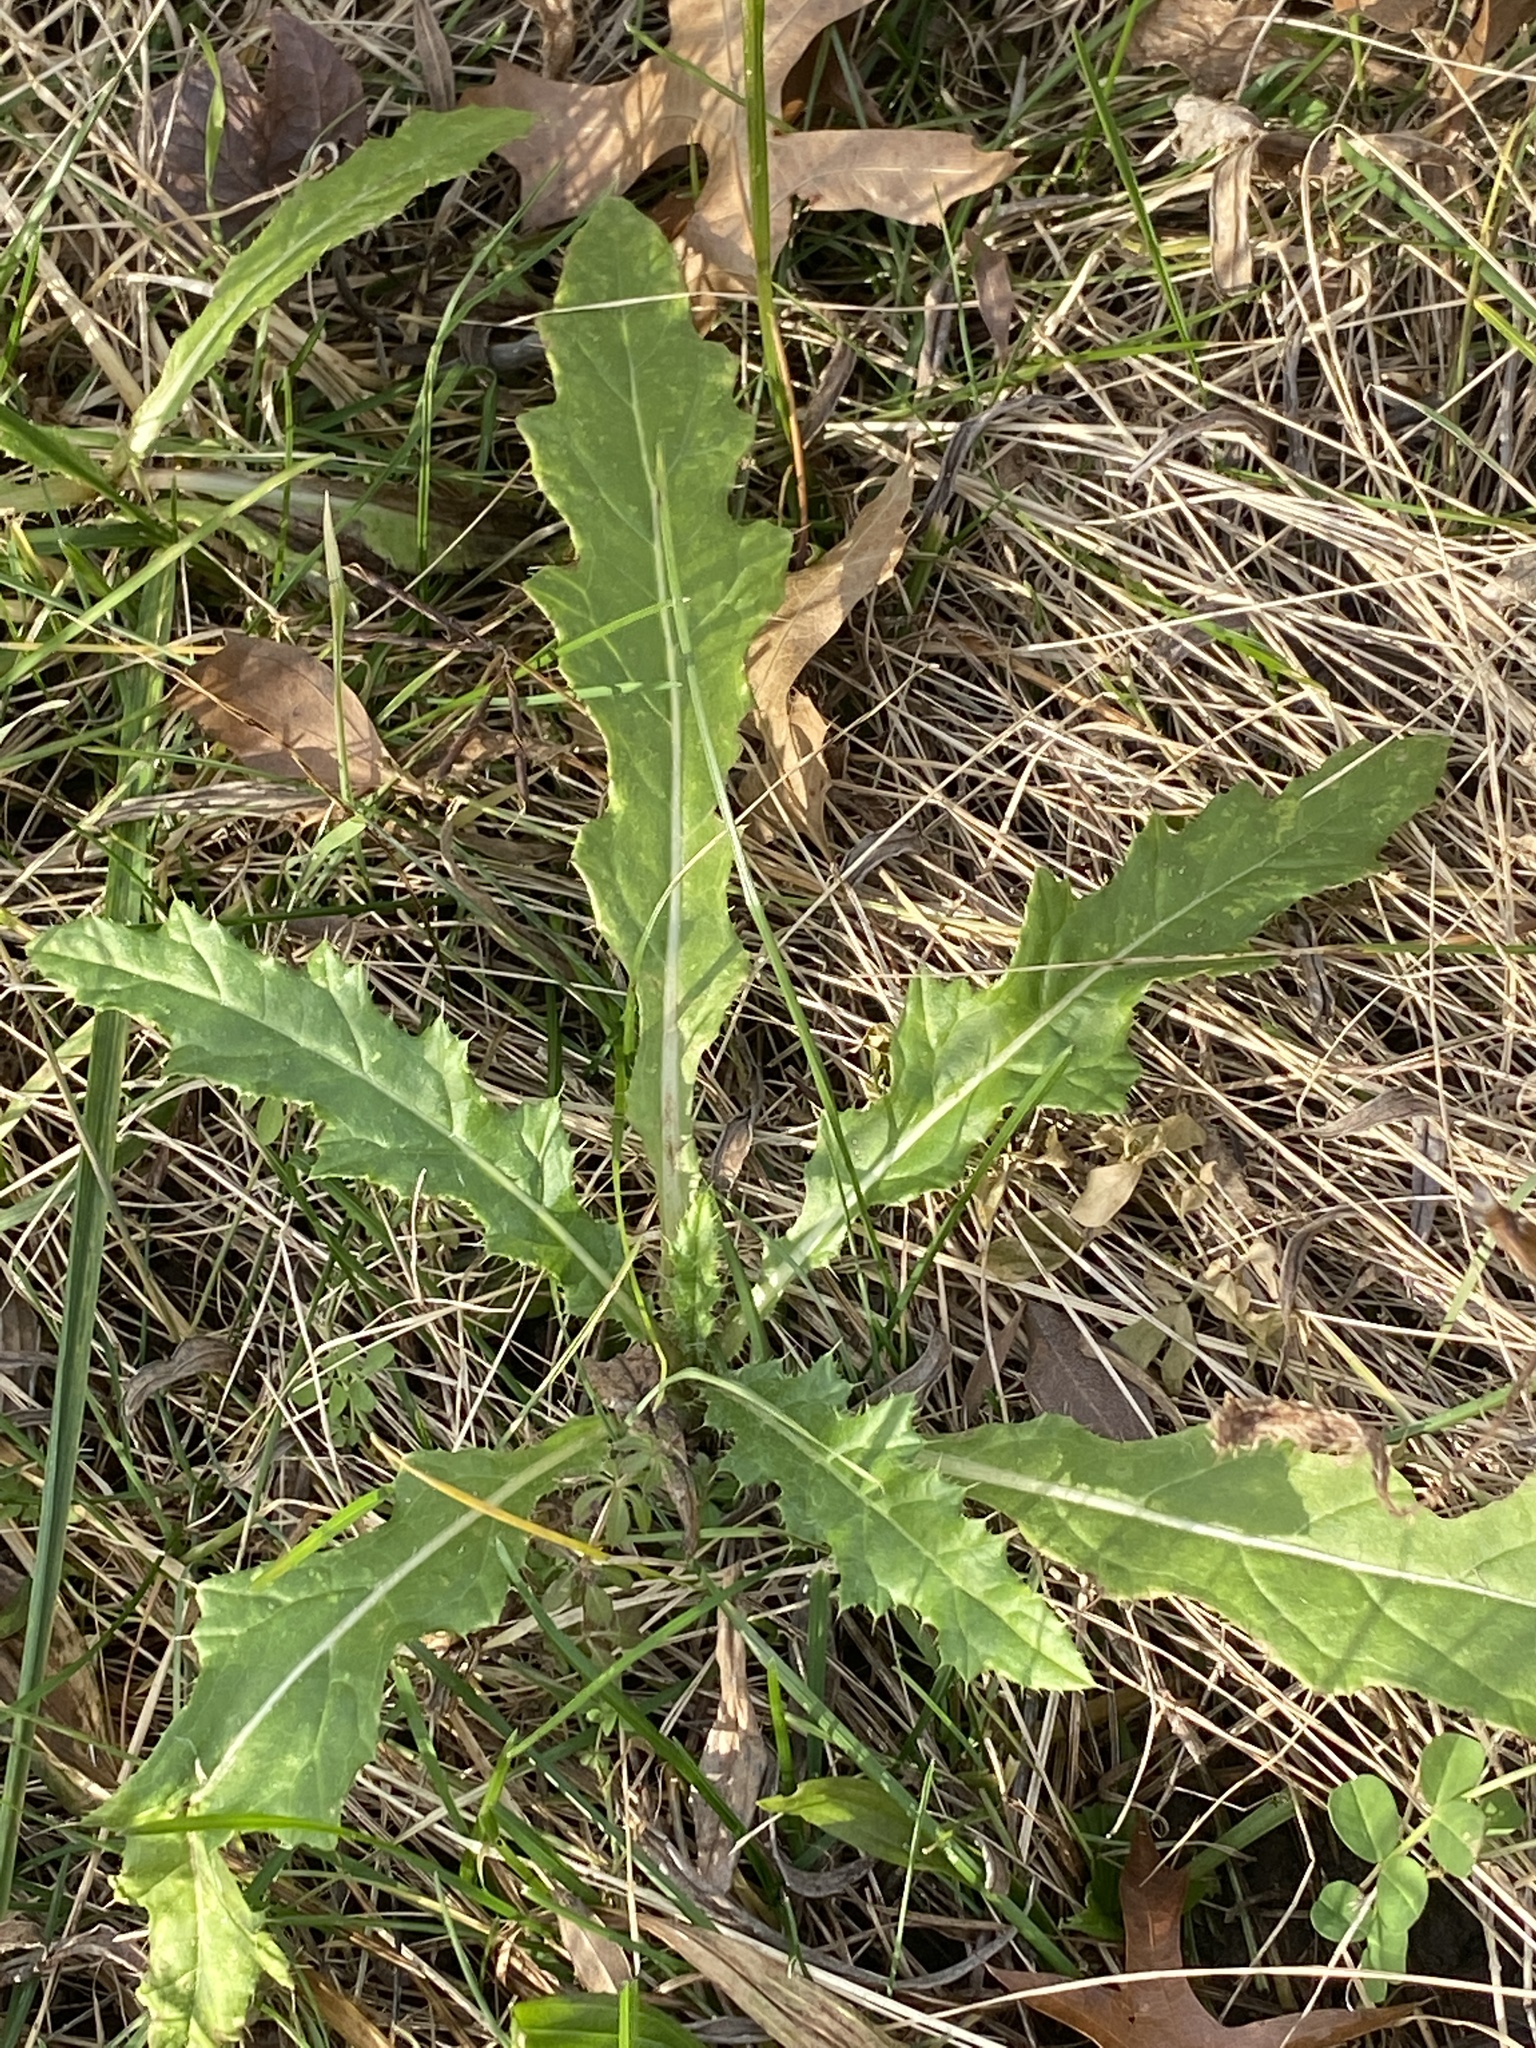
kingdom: Plantae
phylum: Tracheophyta
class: Magnoliopsida
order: Asterales
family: Asteraceae
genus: Cirsium
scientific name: Cirsium arvense
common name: Creeping thistle
